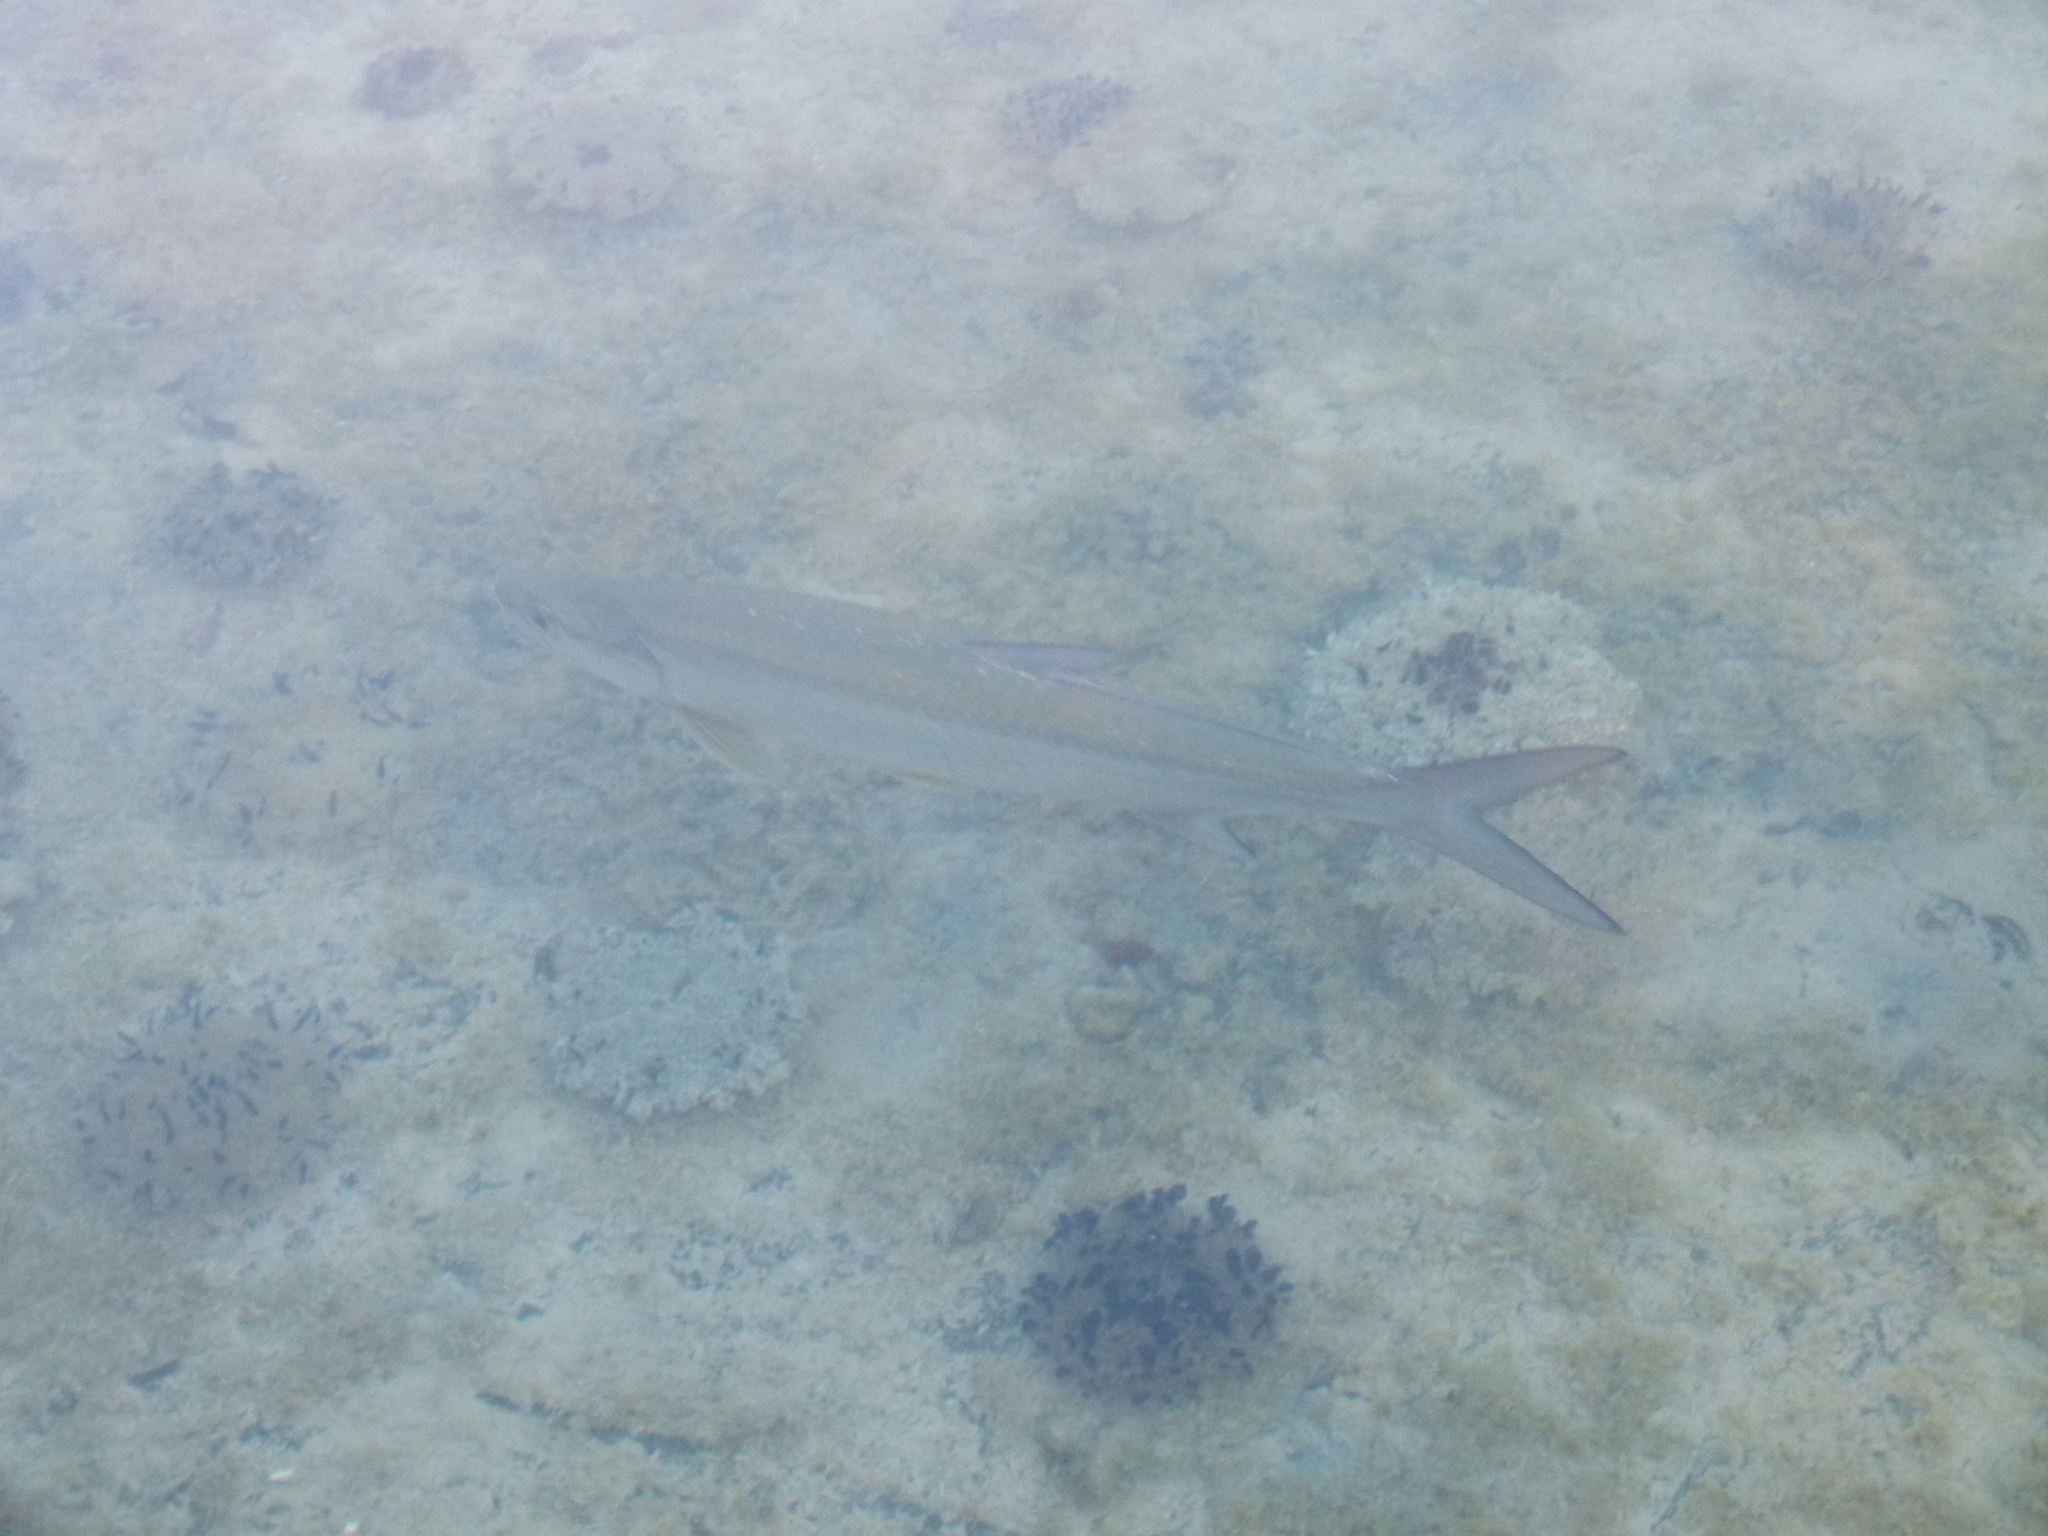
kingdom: Animalia
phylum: Chordata
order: Elopiformes
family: Megalopidae
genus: Megalops
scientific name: Megalops atlanticus
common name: Tarpon
